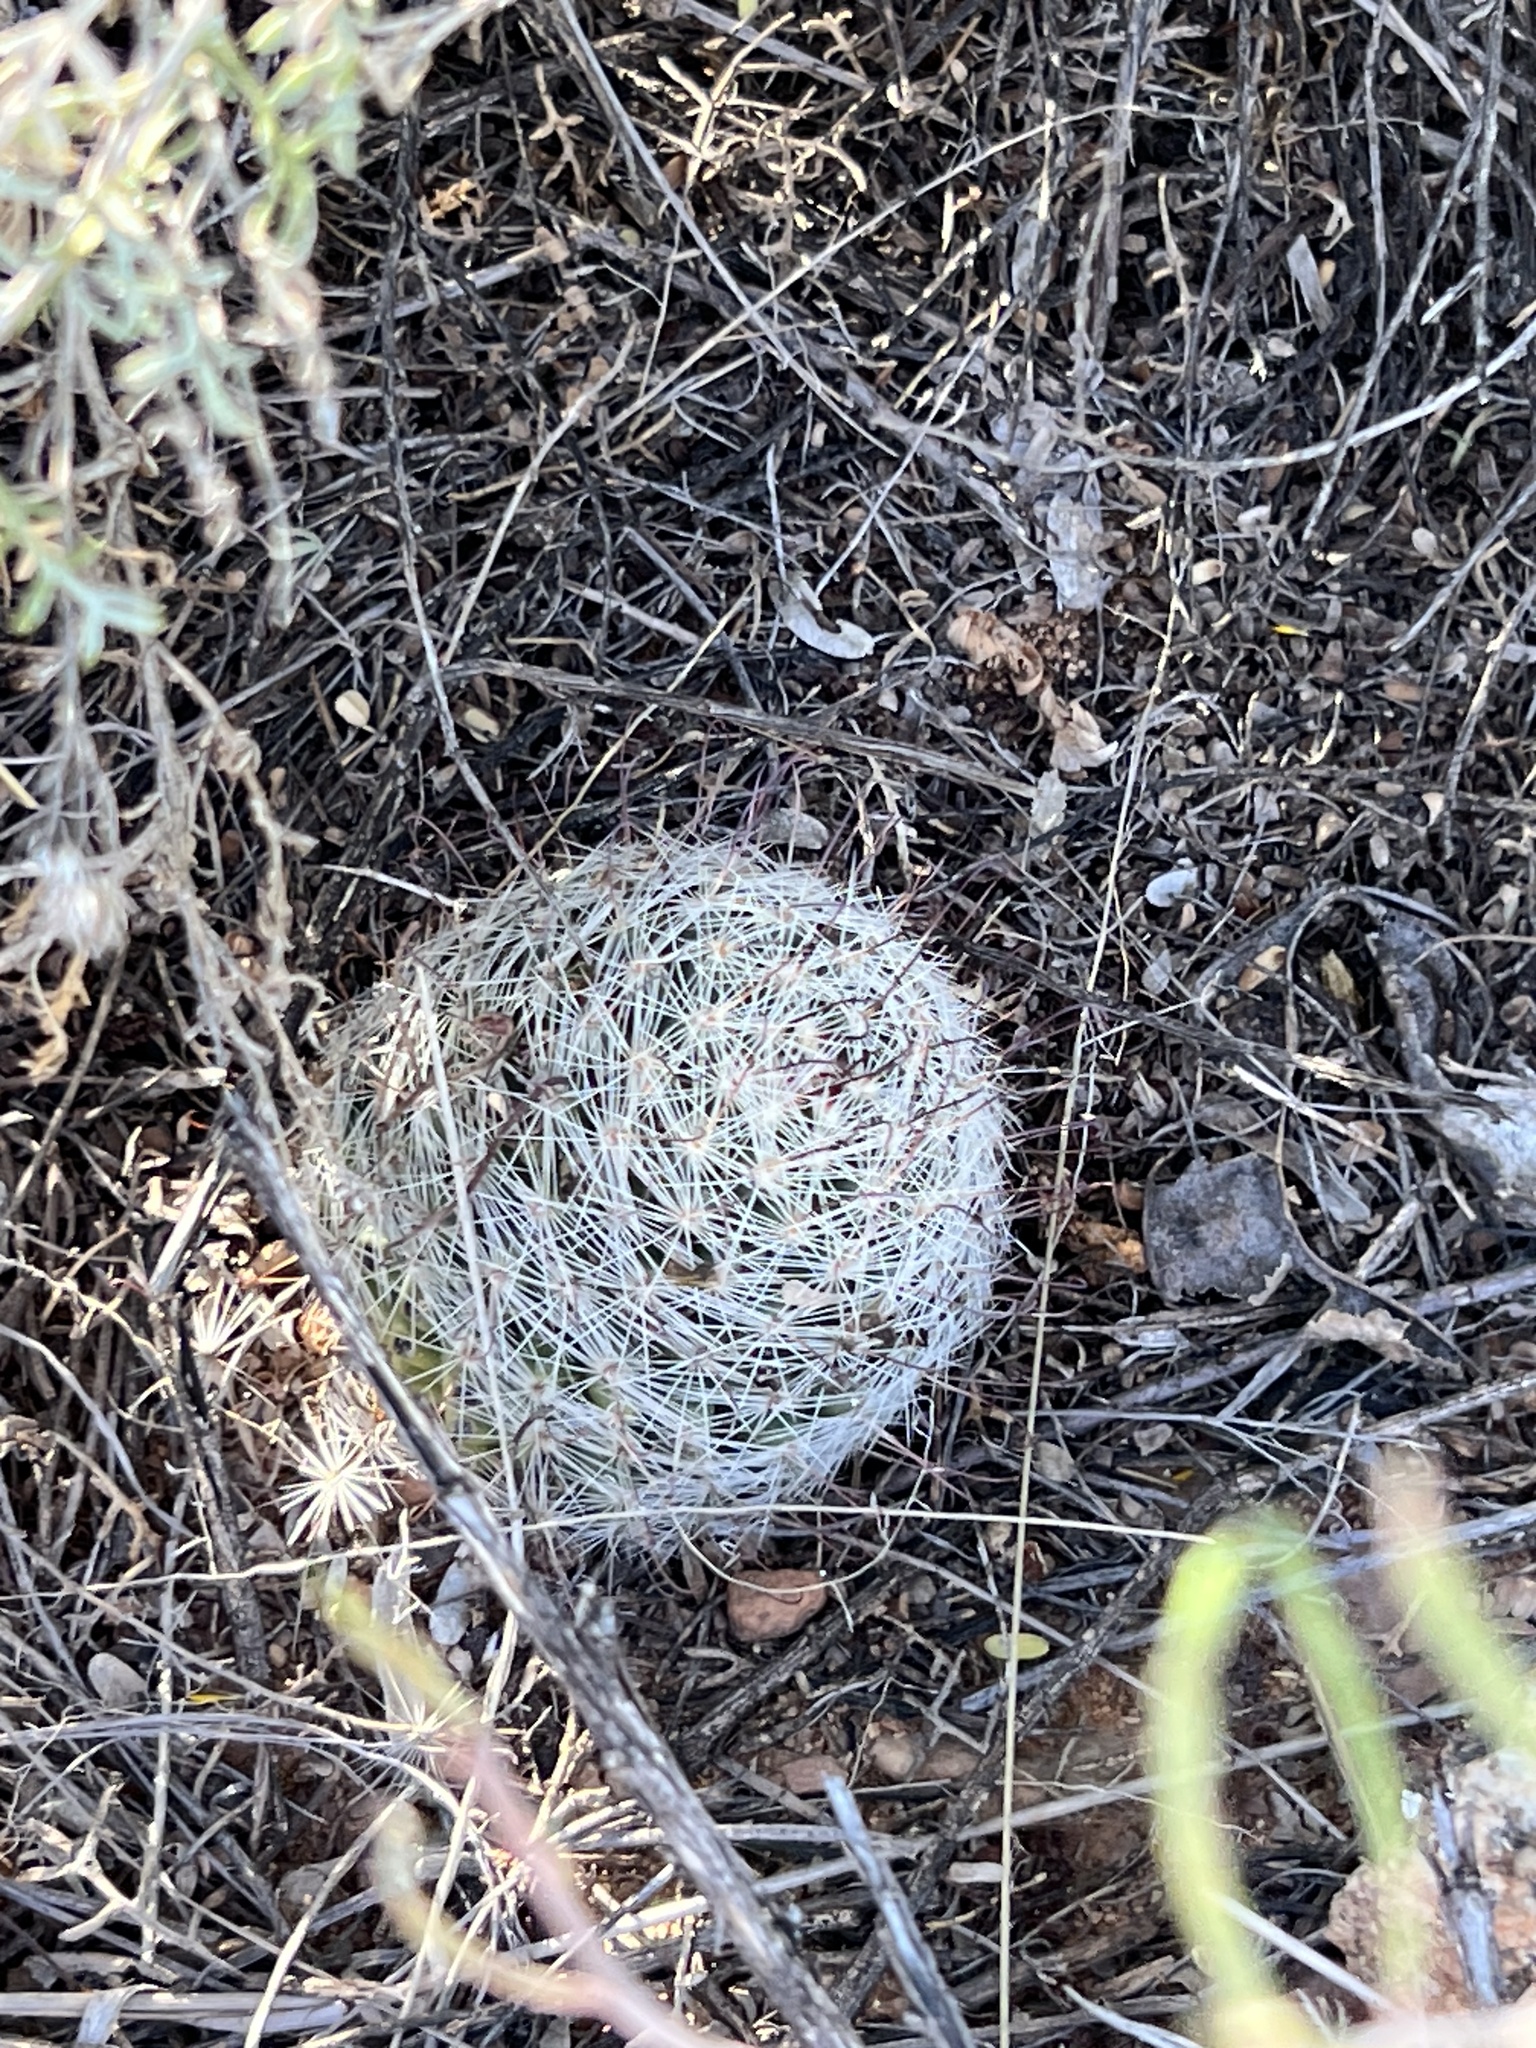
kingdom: Plantae
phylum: Tracheophyta
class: Magnoliopsida
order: Caryophyllales
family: Cactaceae
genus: Cochemiea
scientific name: Cochemiea grahamii
